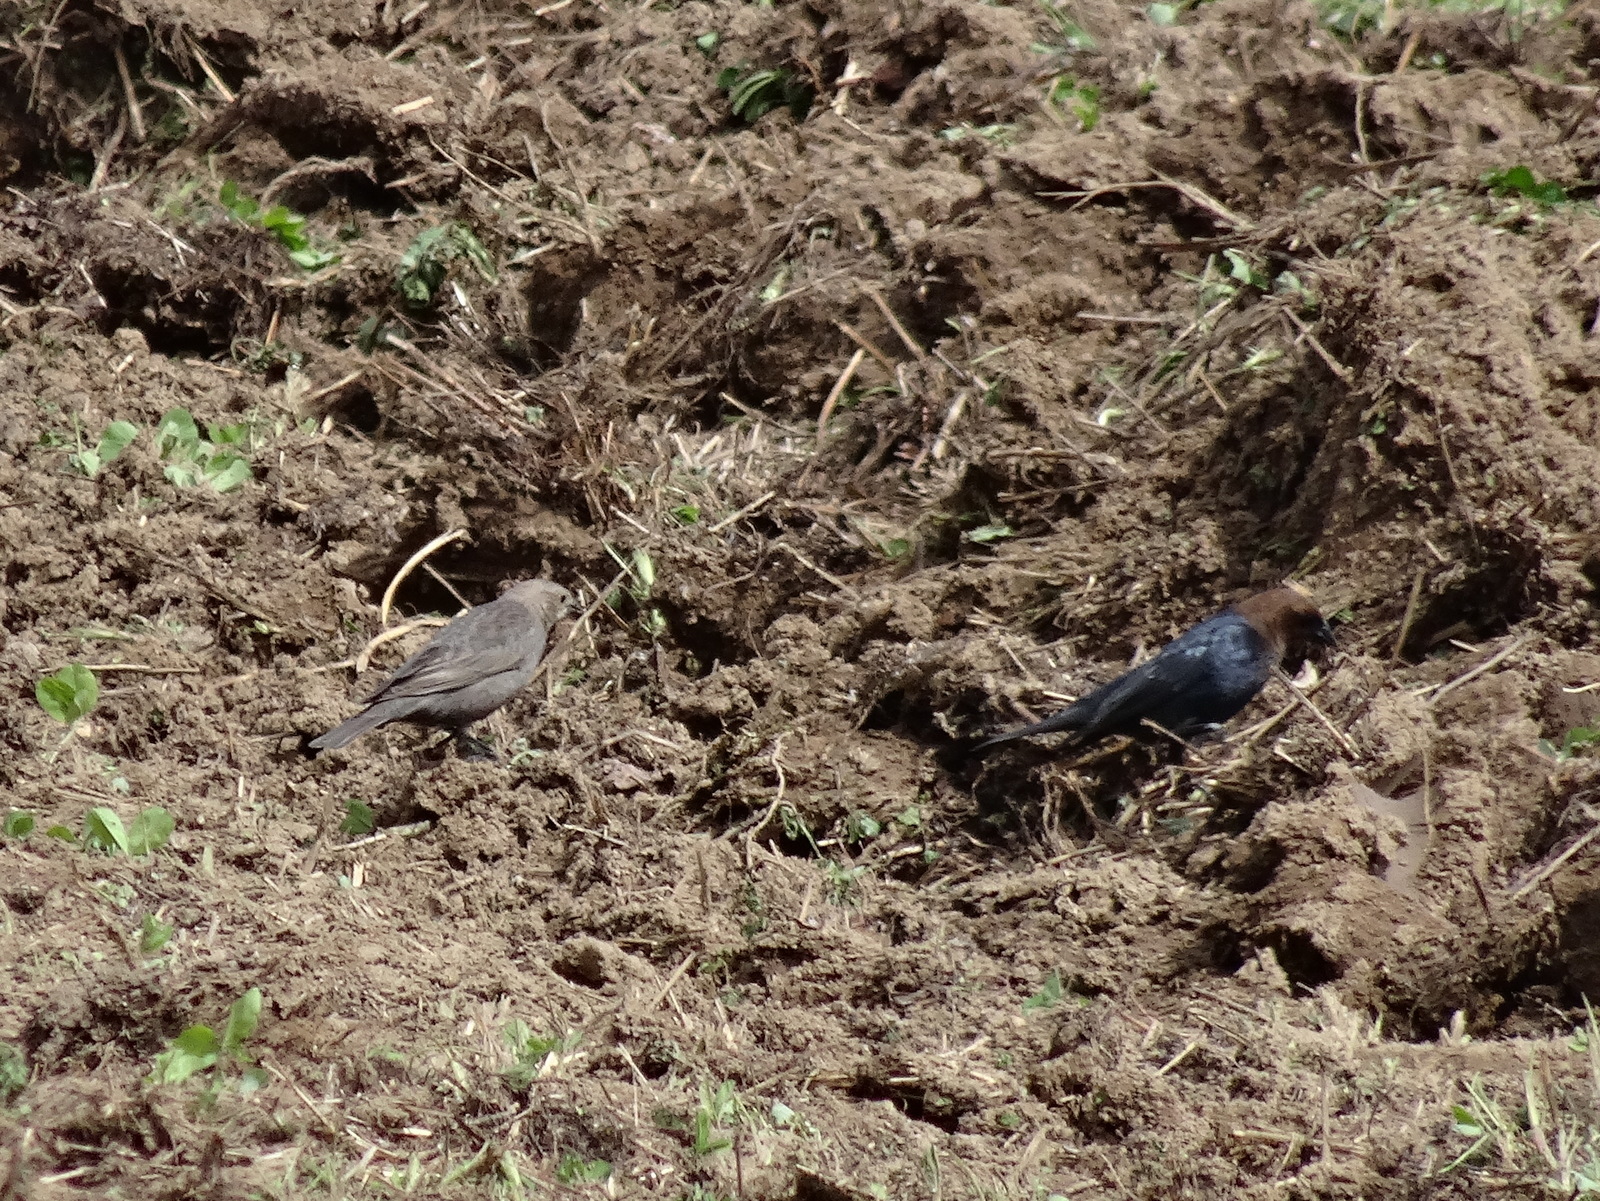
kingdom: Animalia
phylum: Chordata
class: Aves
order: Passeriformes
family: Icteridae
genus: Molothrus
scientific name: Molothrus ater
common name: Brown-headed cowbird
